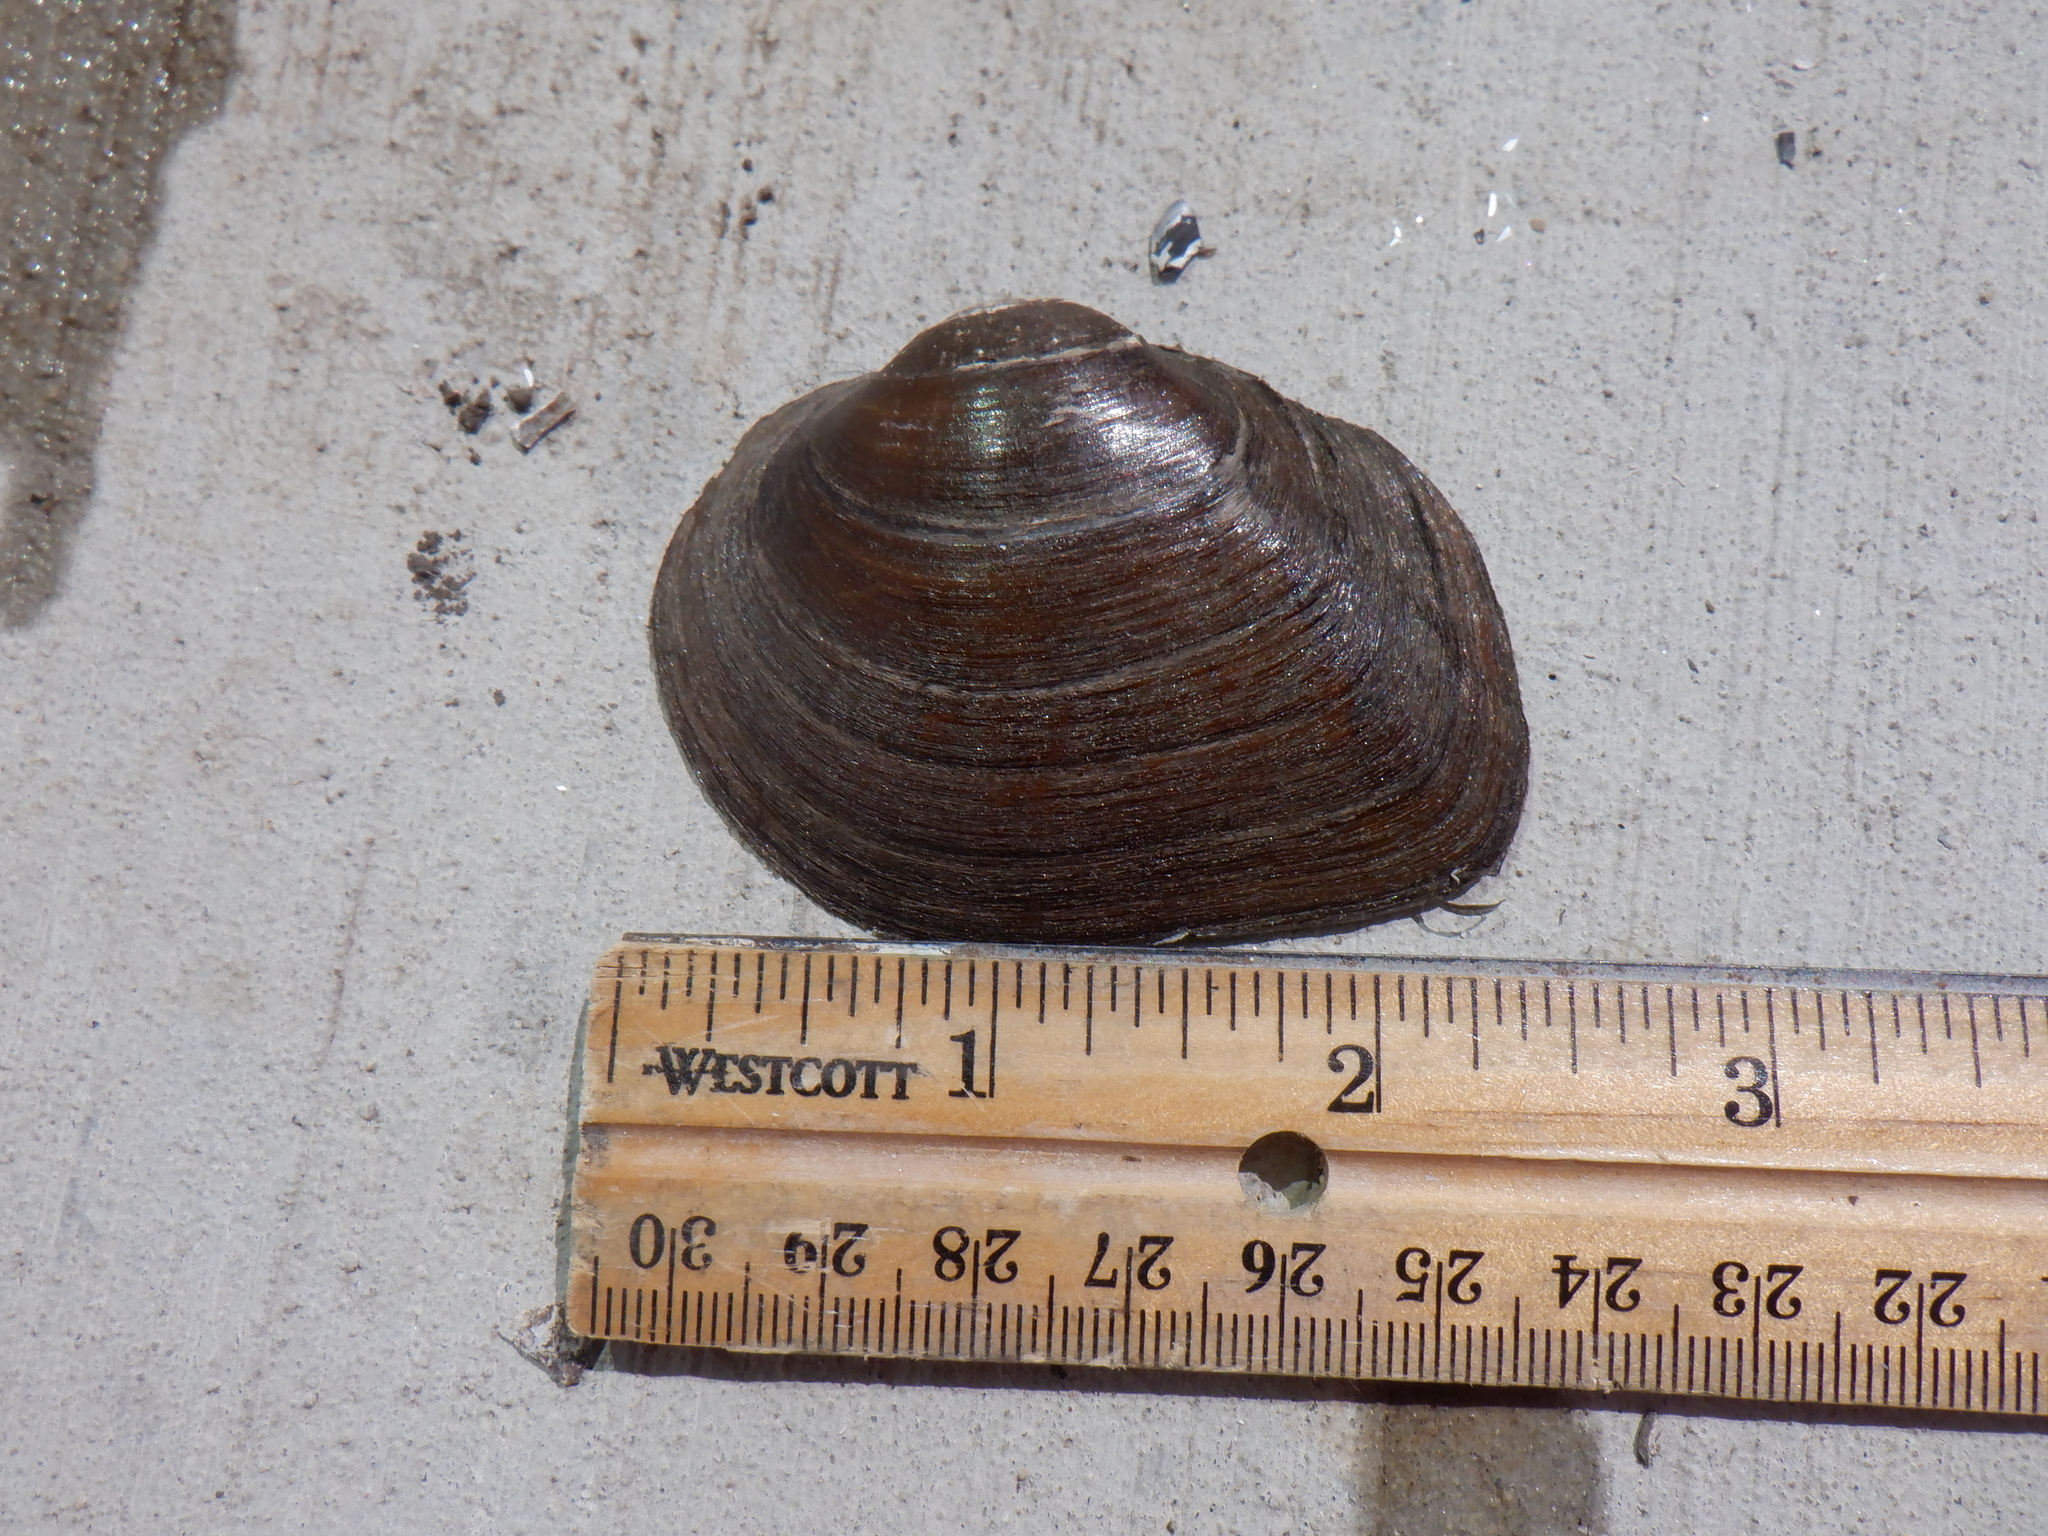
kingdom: Animalia
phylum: Mollusca
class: Bivalvia
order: Unionida
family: Unionidae
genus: Fusconaia
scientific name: Fusconaia flava
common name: Wabash pigtoe
